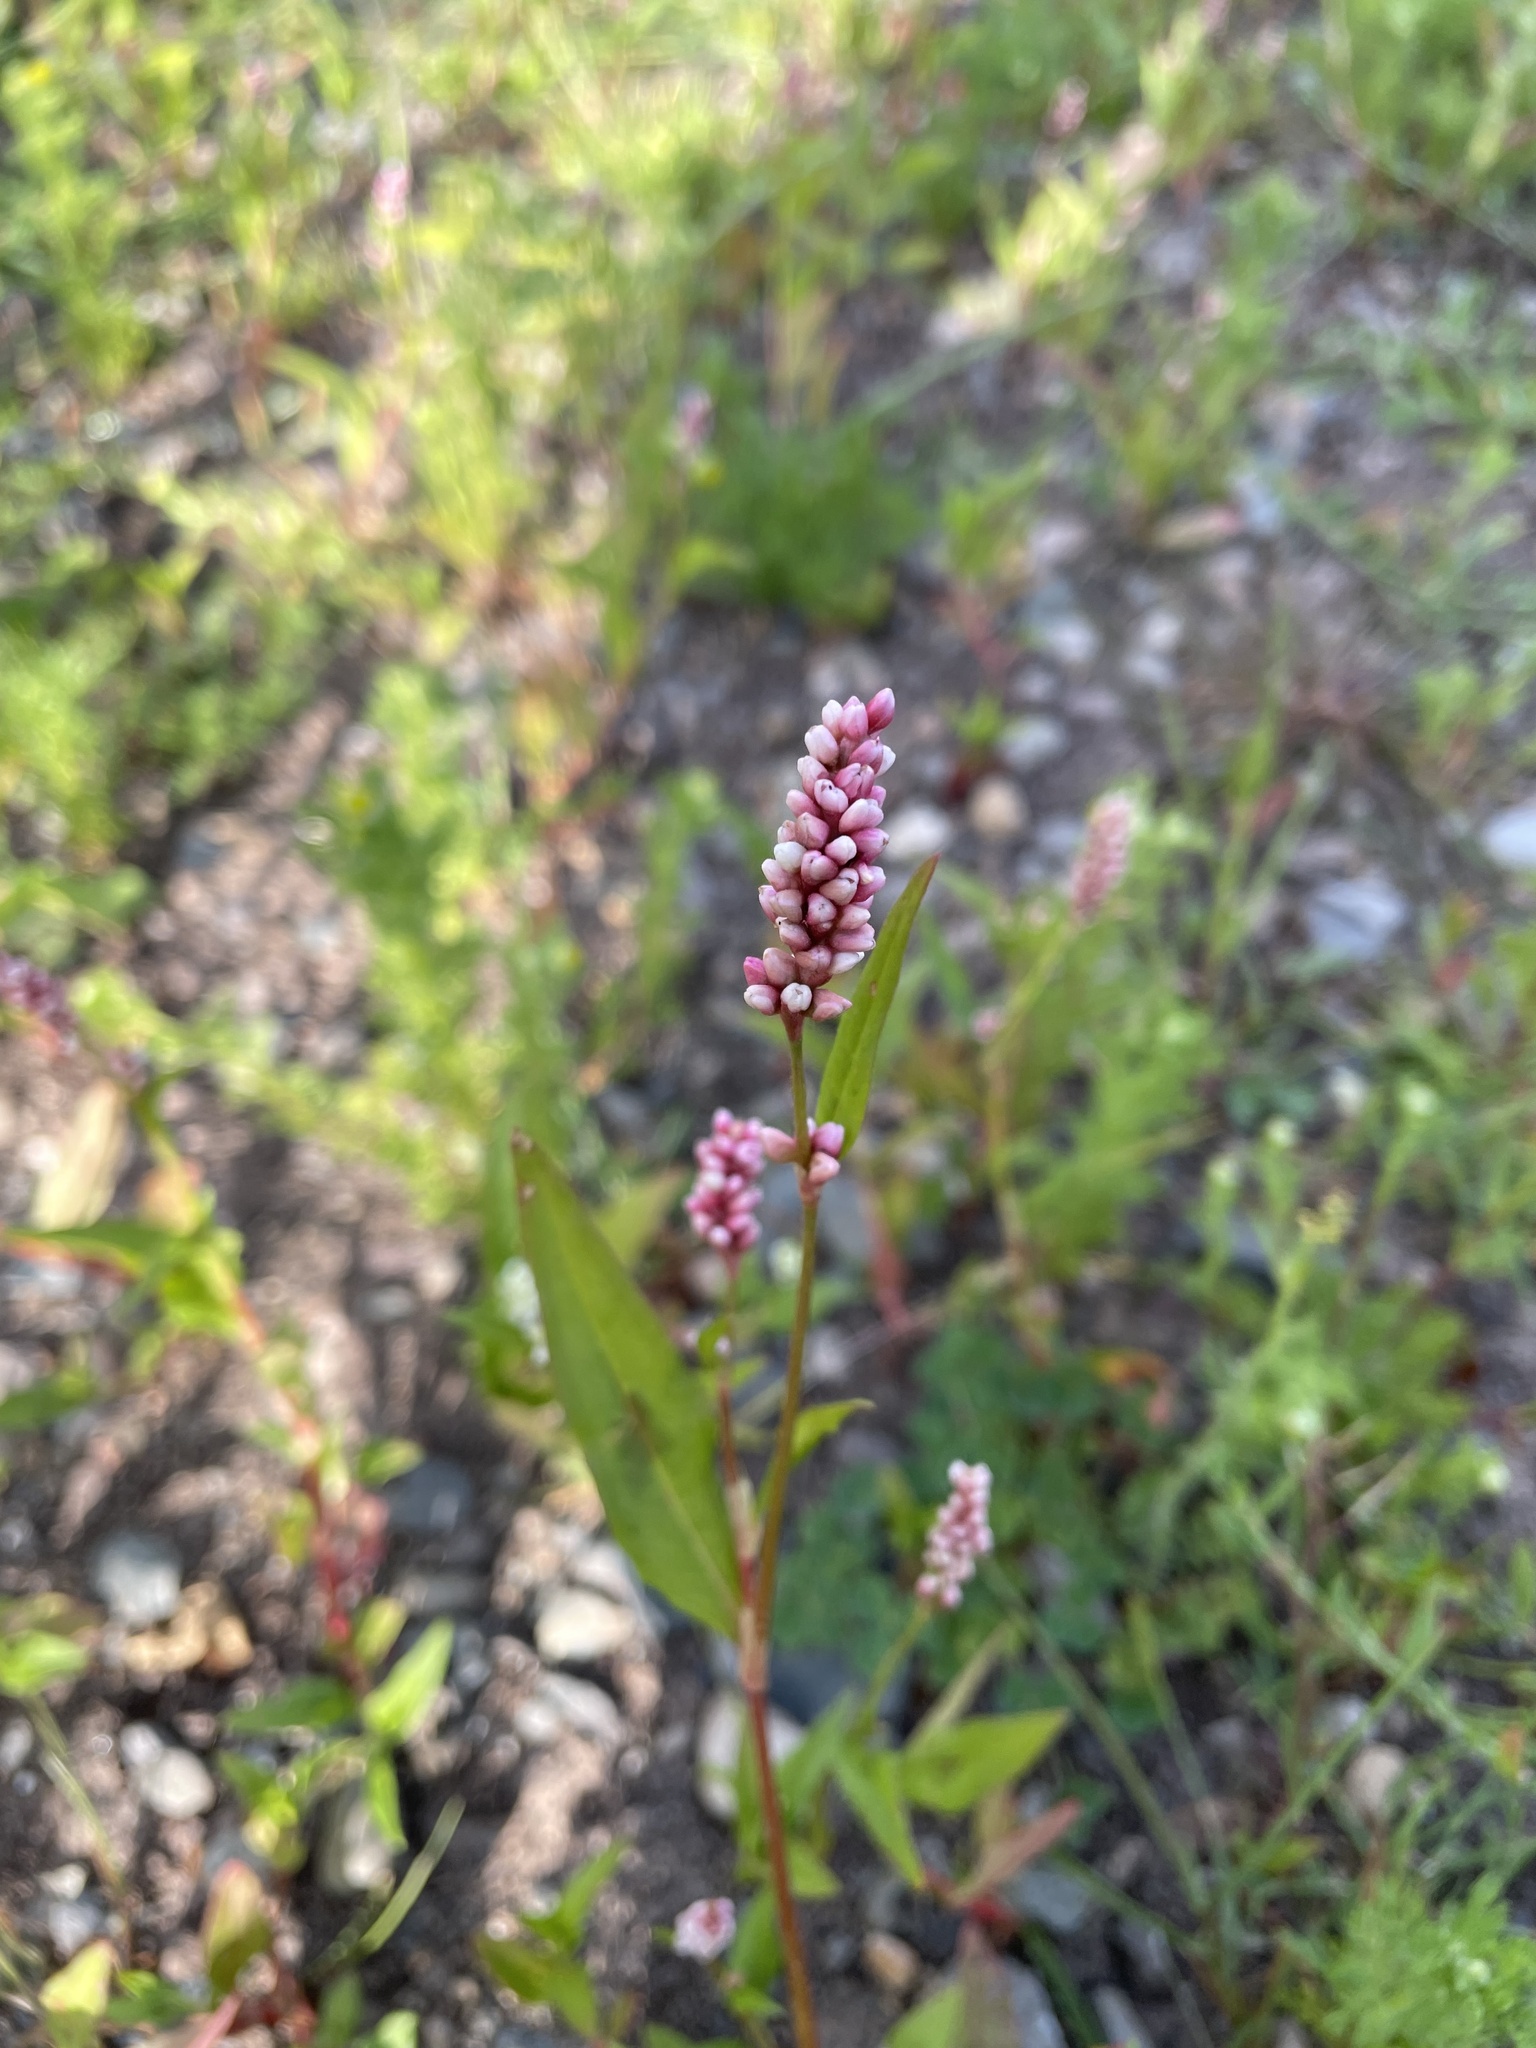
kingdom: Plantae
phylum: Tracheophyta
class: Magnoliopsida
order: Caryophyllales
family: Polygonaceae
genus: Persicaria
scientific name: Persicaria maculosa
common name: Redshank
